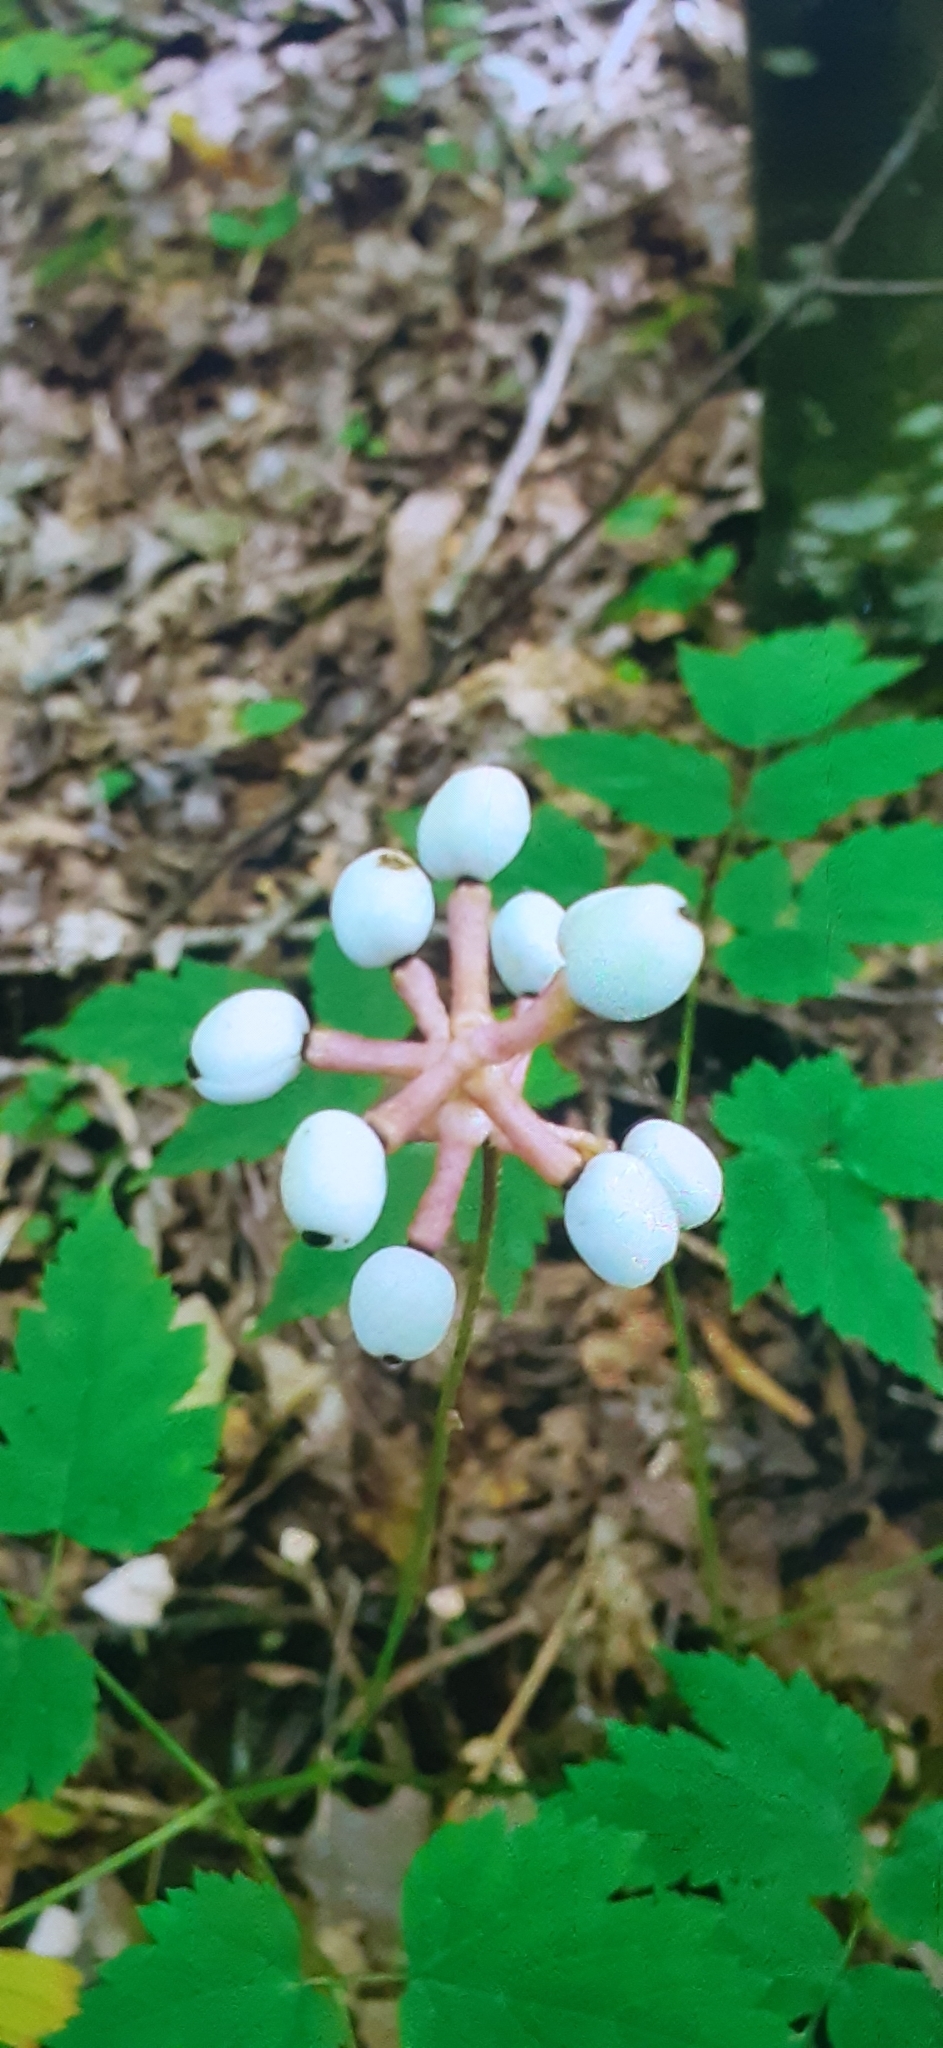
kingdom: Plantae
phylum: Tracheophyta
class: Magnoliopsida
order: Ranunculales
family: Ranunculaceae
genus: Actaea
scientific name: Actaea pachypoda
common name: Doll's-eyes
